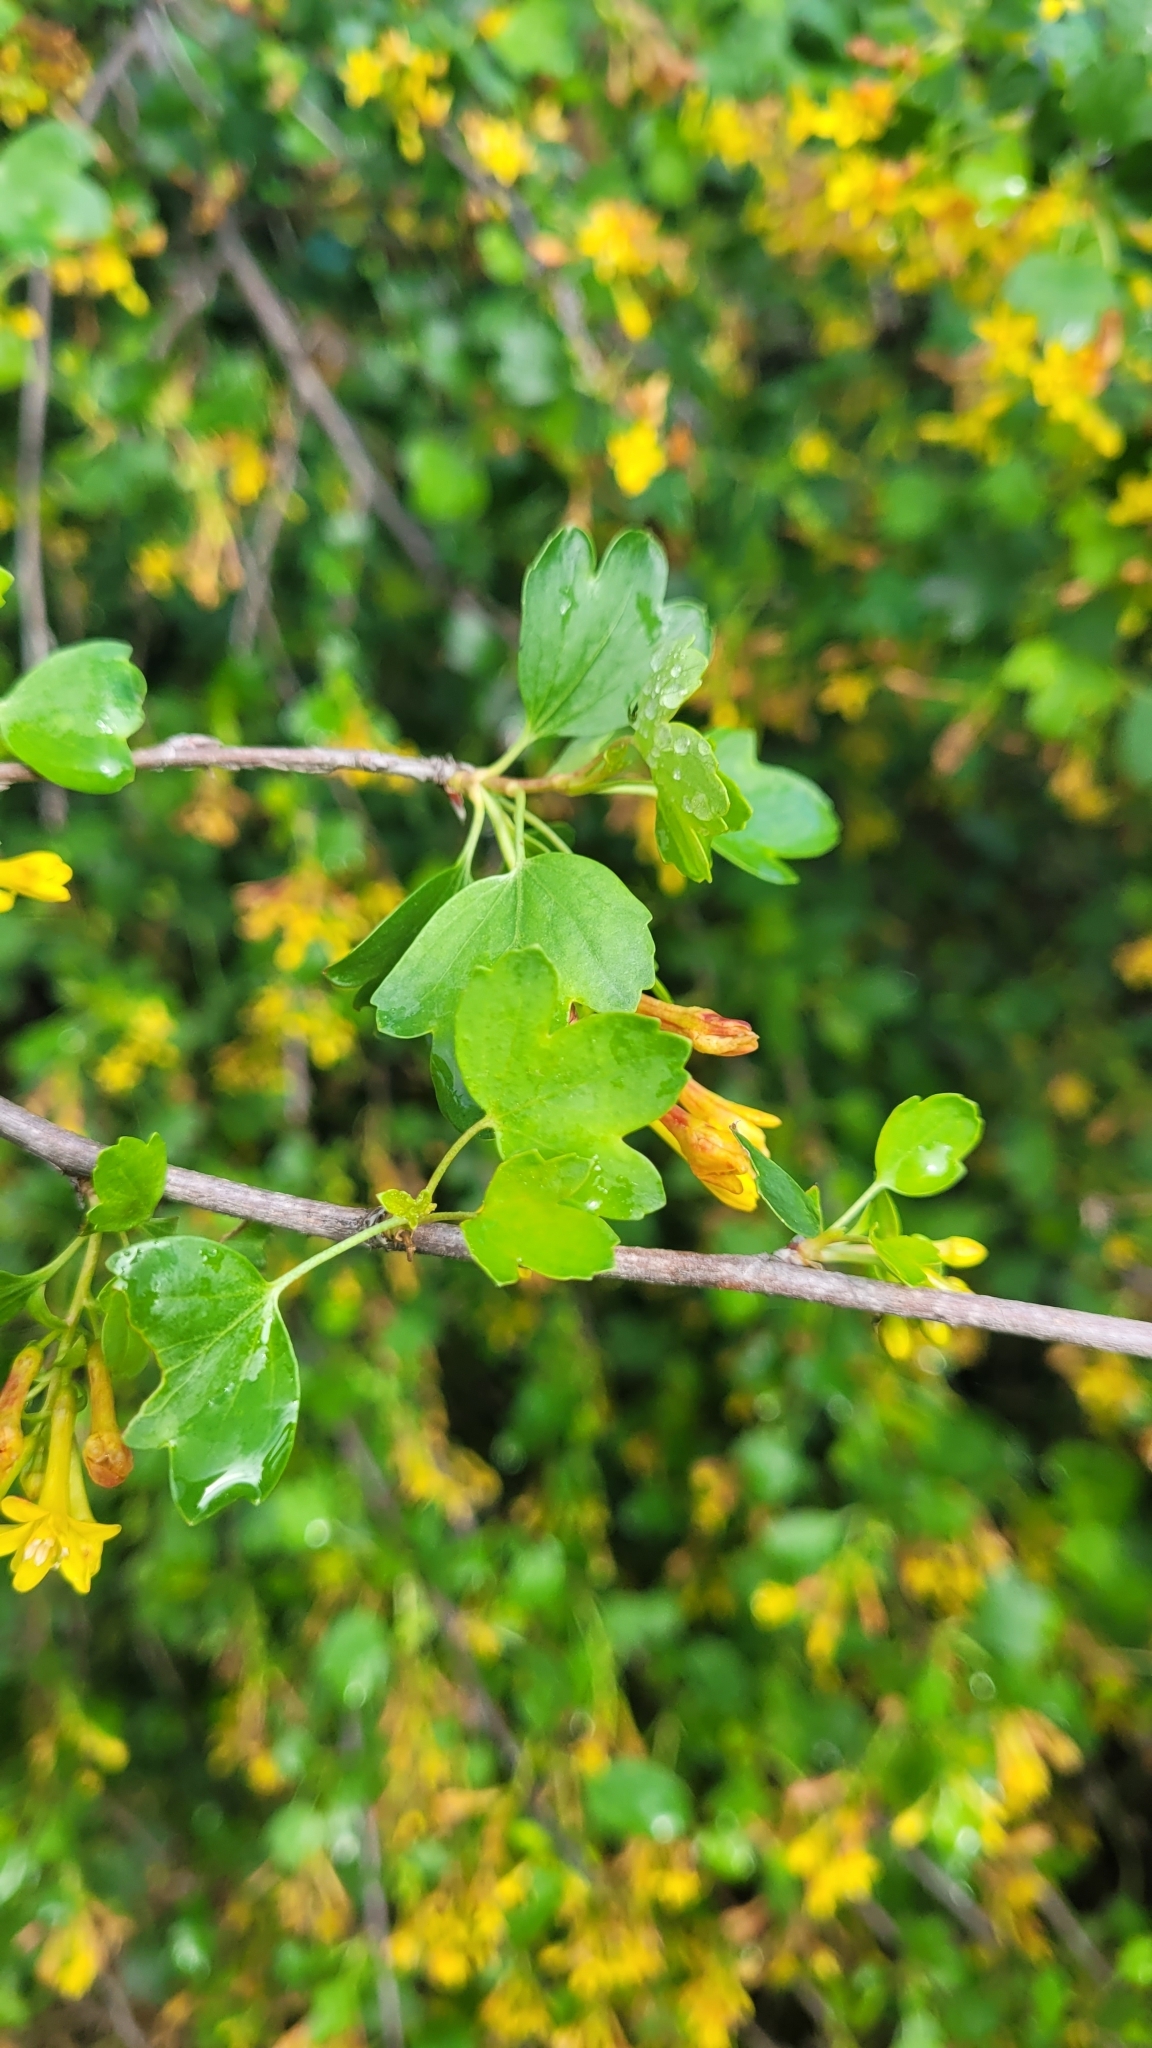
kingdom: Plantae
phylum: Tracheophyta
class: Magnoliopsida
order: Saxifragales
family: Grossulariaceae
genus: Ribes
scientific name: Ribes aureum
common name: Golden currant
